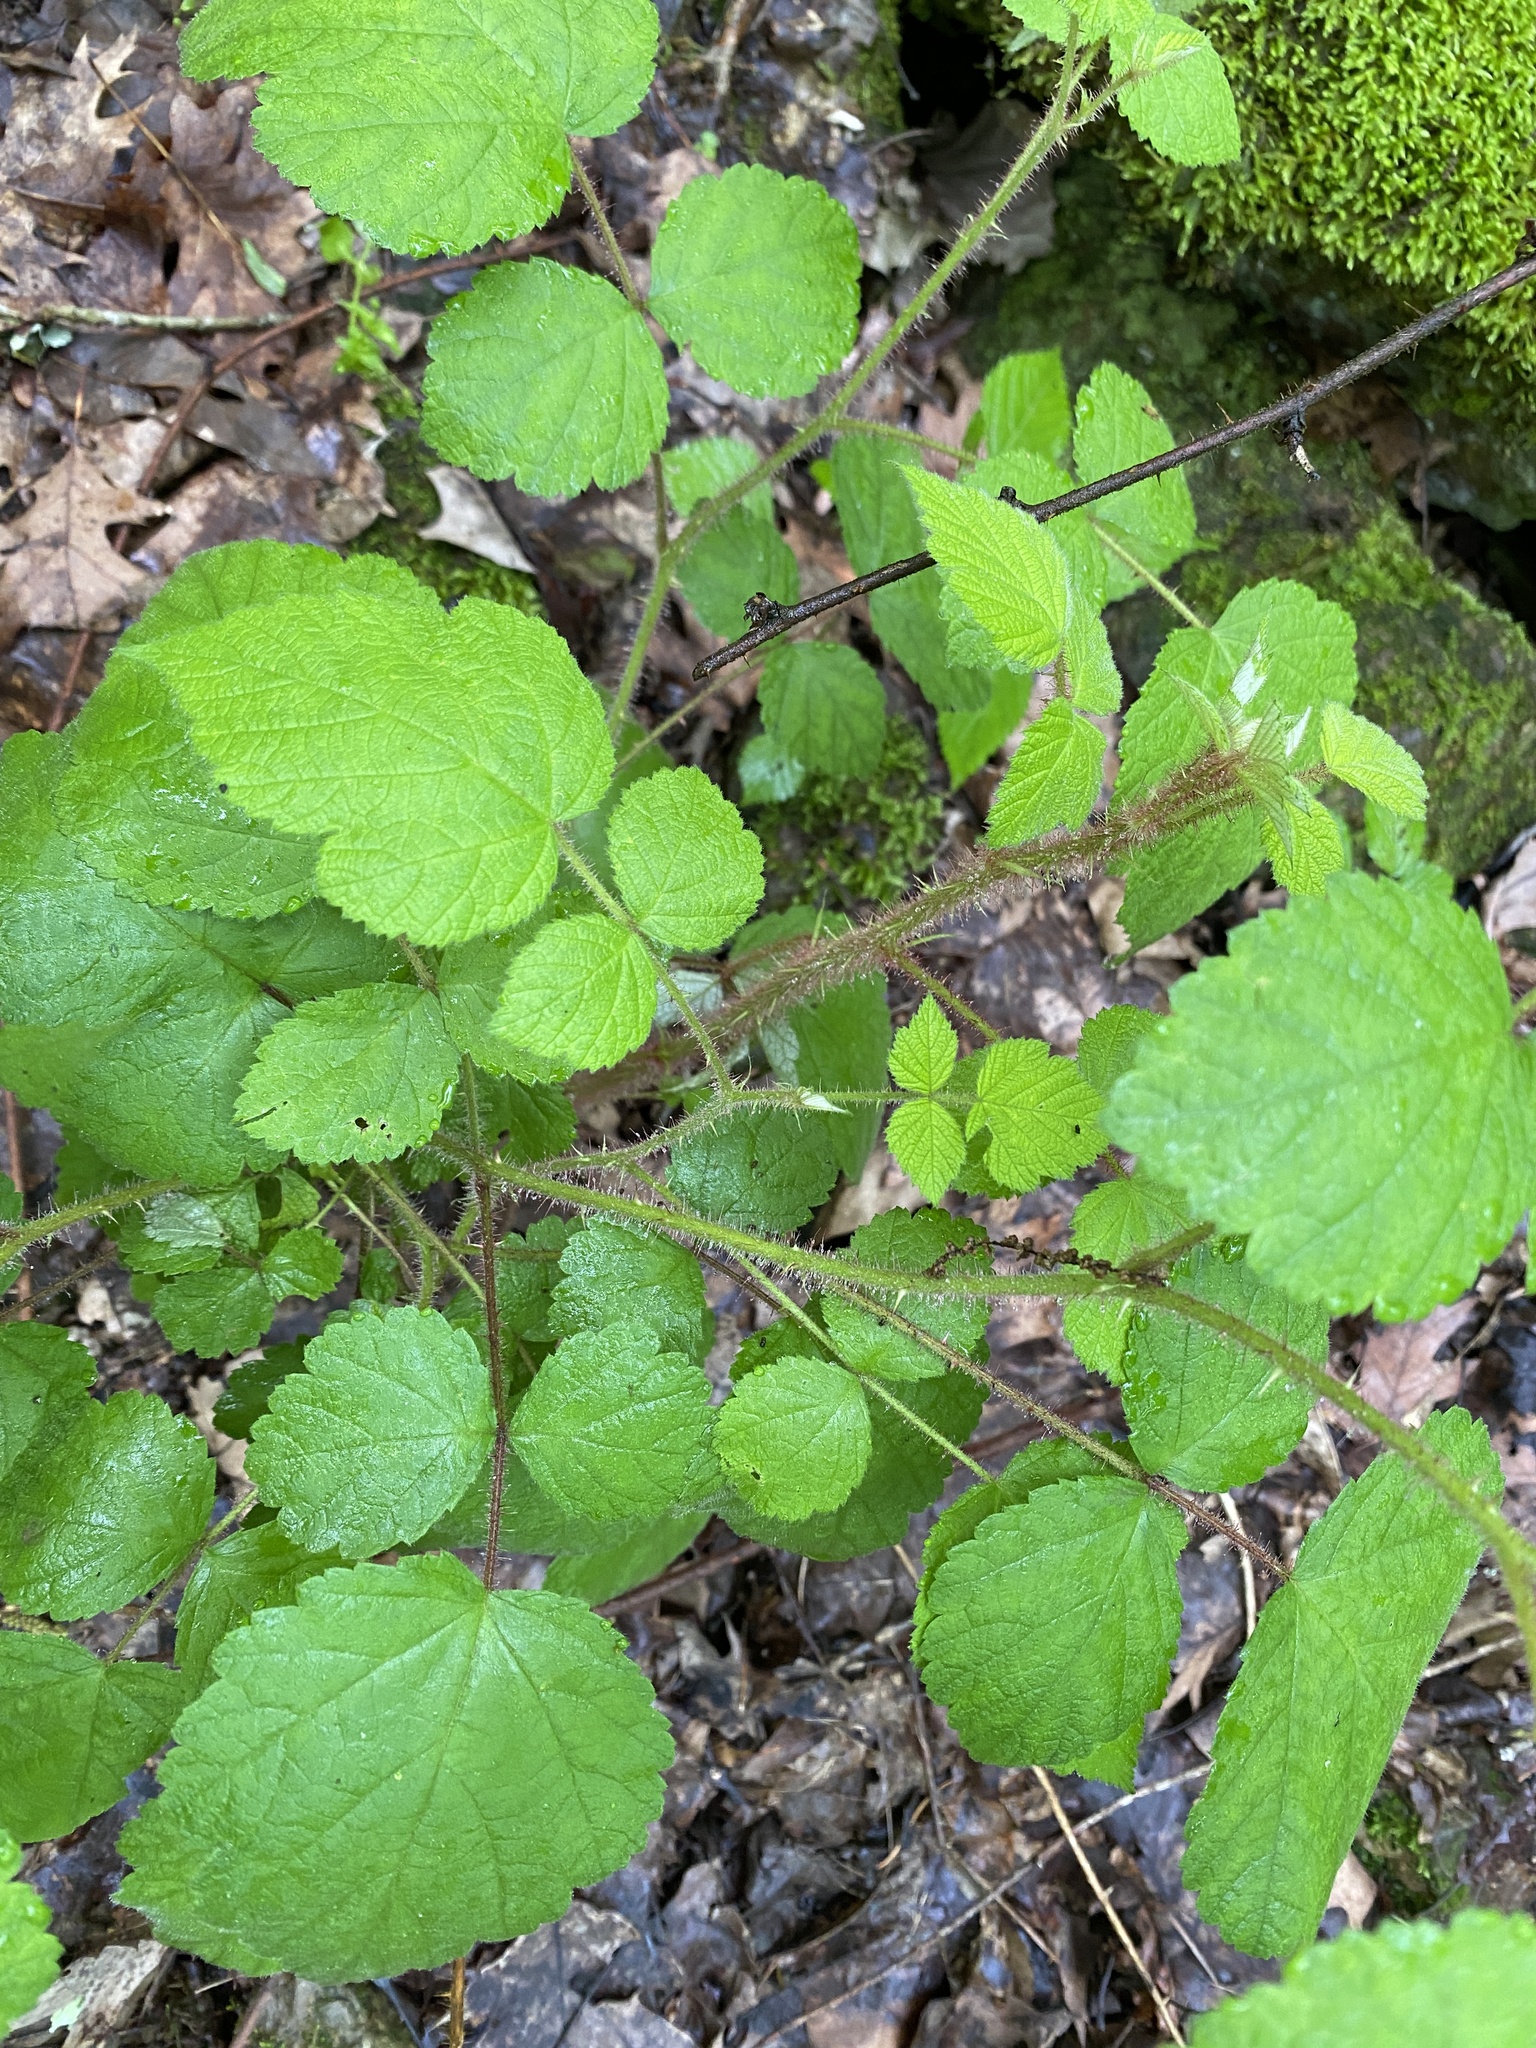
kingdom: Plantae
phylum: Tracheophyta
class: Magnoliopsida
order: Rosales
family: Rosaceae
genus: Rubus
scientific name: Rubus phoenicolasius
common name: Japanese wineberry
